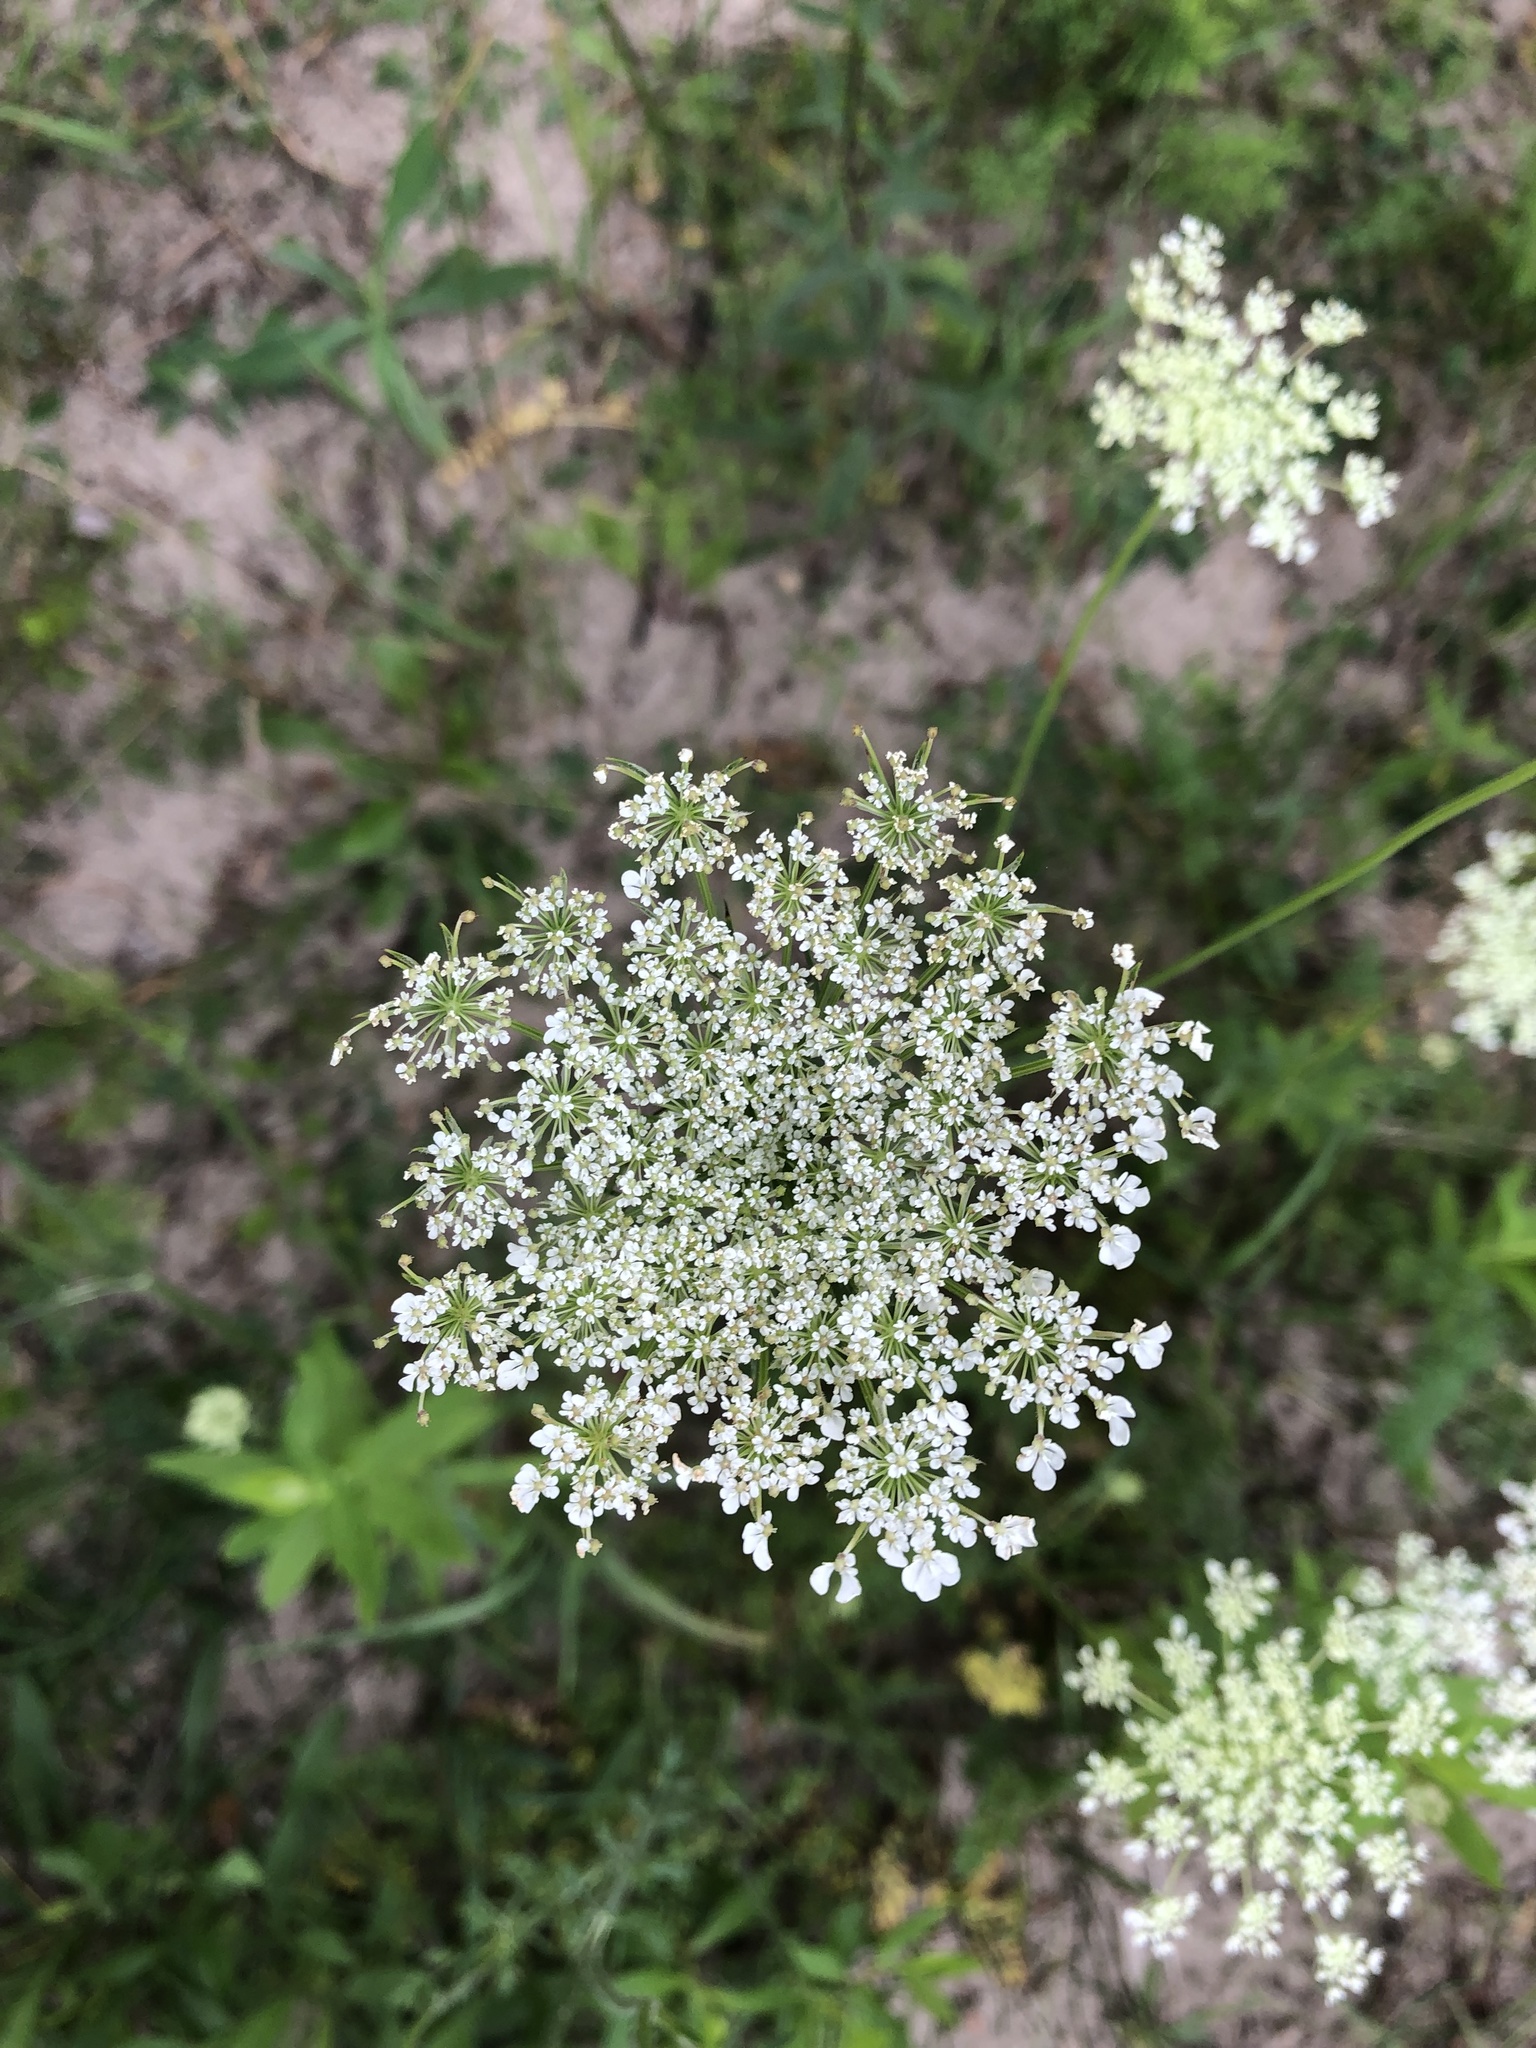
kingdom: Plantae
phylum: Tracheophyta
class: Magnoliopsida
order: Apiales
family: Apiaceae
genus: Daucus
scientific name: Daucus carota
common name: Wild carrot
